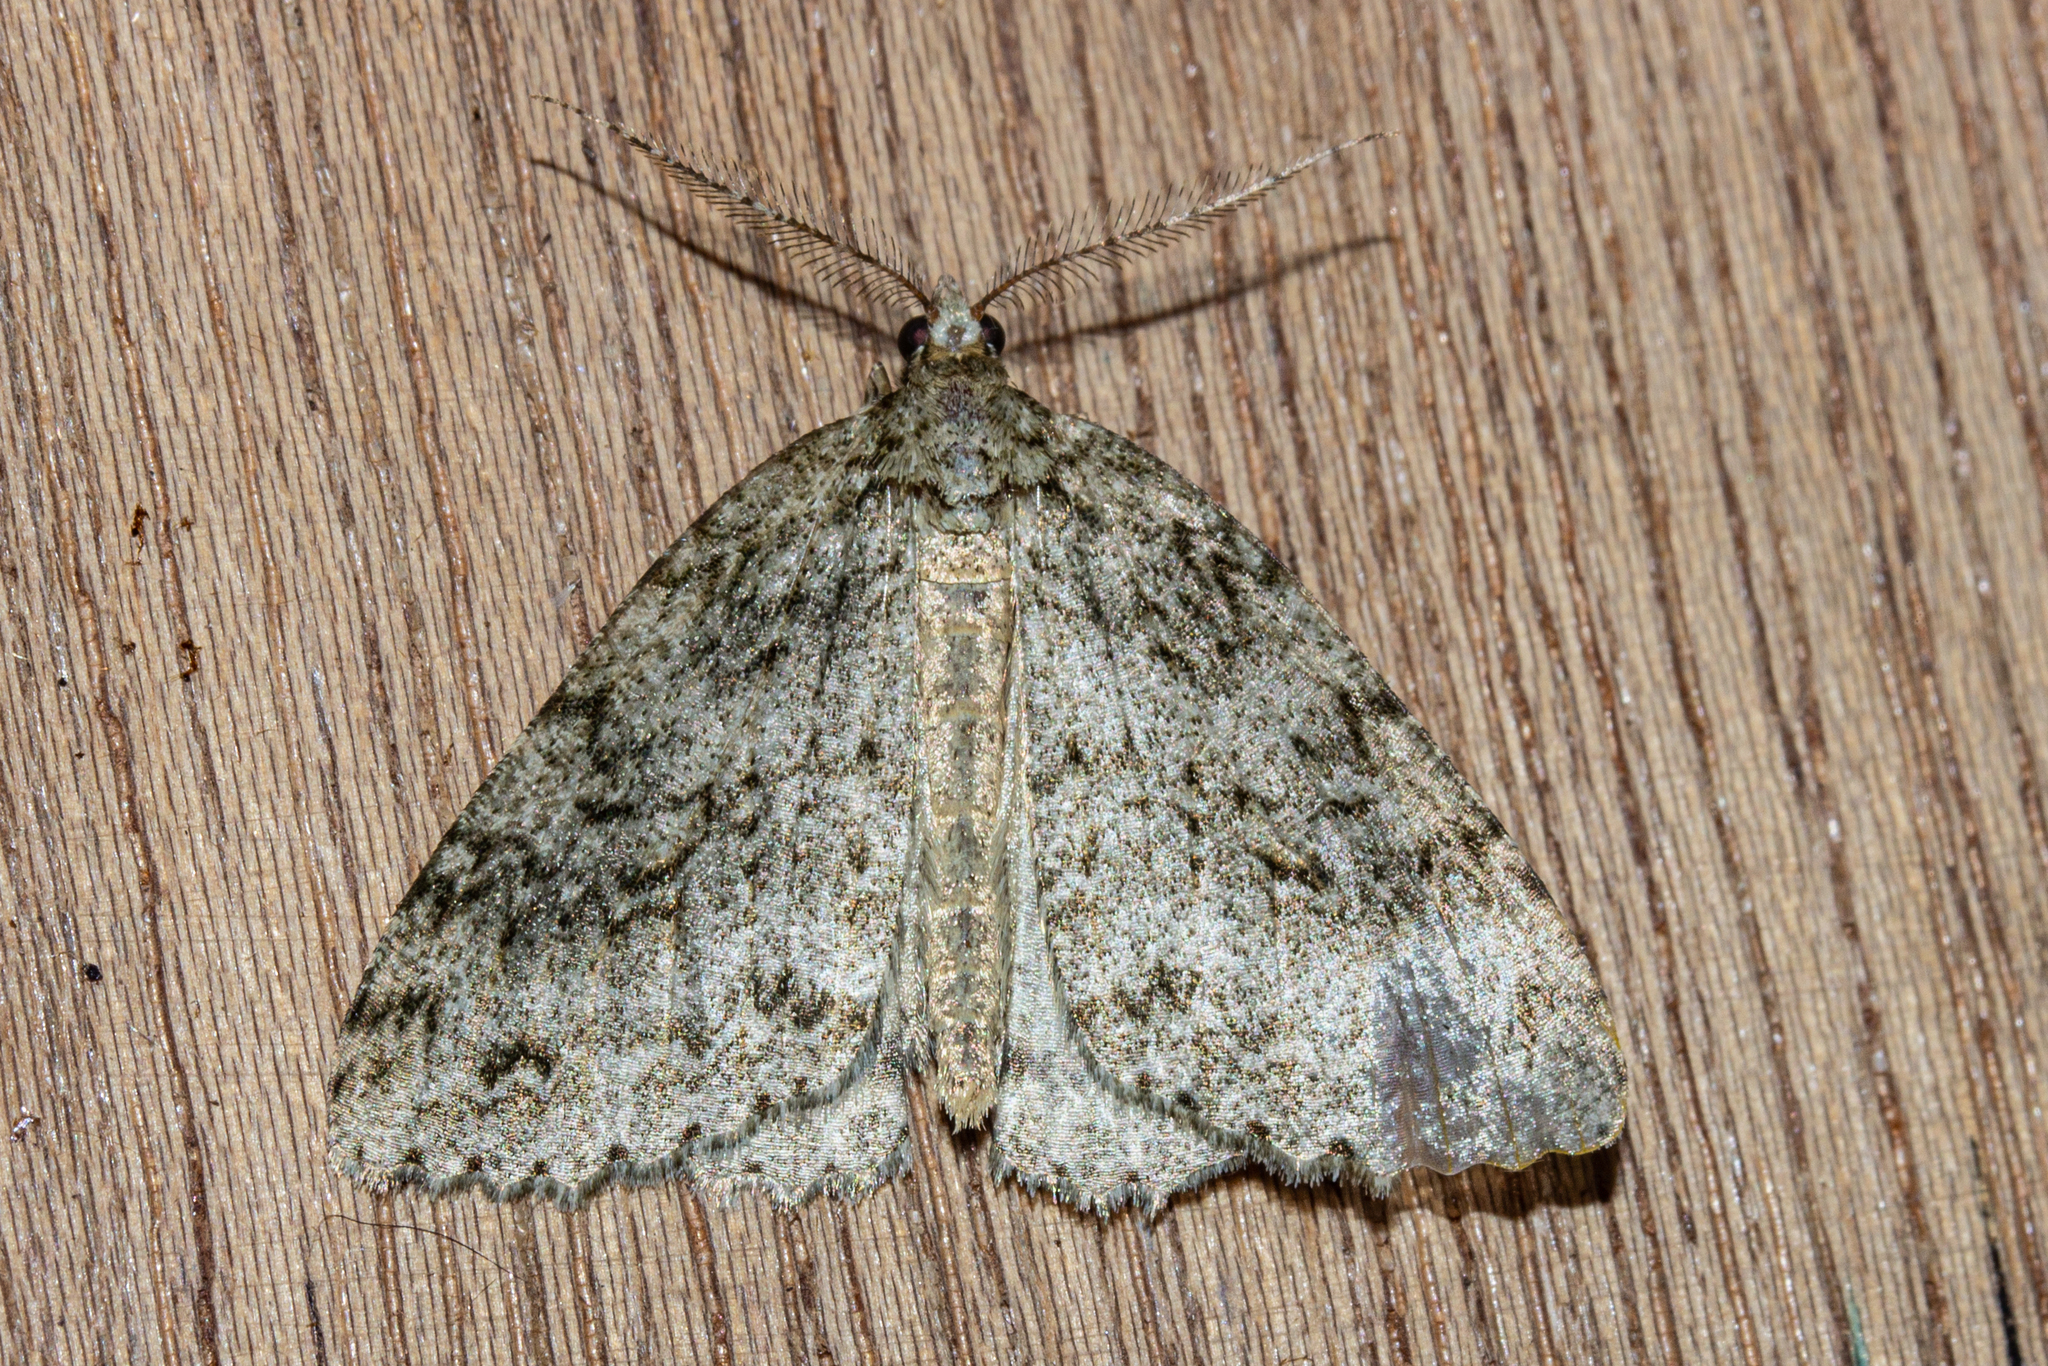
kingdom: Animalia
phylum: Arthropoda
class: Insecta
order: Lepidoptera
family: Geometridae
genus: Pseudocoremia
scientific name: Pseudocoremia rudisata
